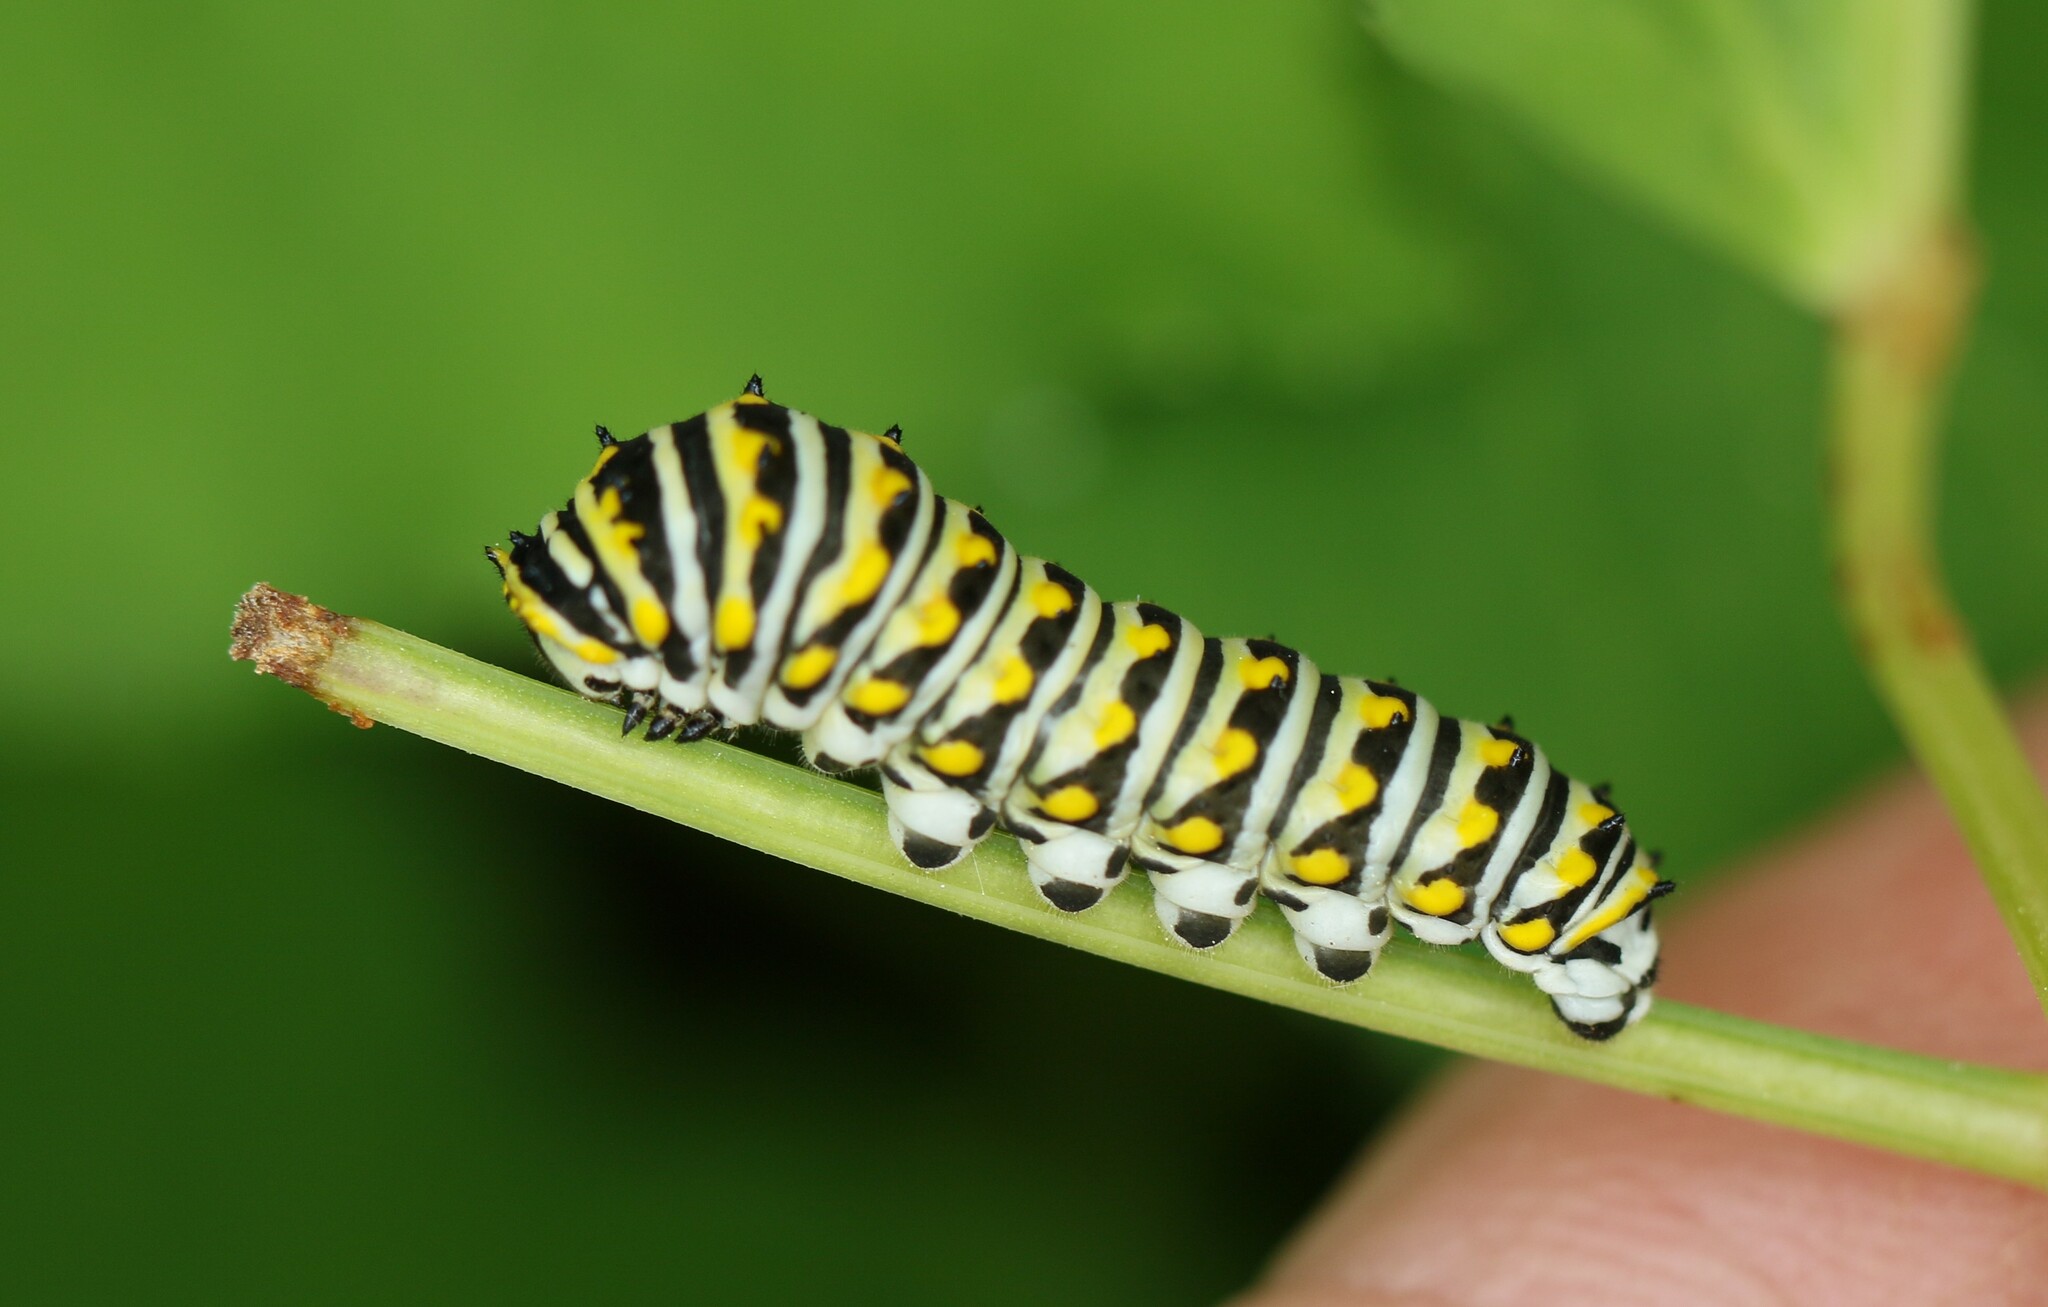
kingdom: Animalia
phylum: Arthropoda
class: Insecta
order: Lepidoptera
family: Papilionidae
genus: Papilio
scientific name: Papilio polyxenes
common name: Black swallowtail
